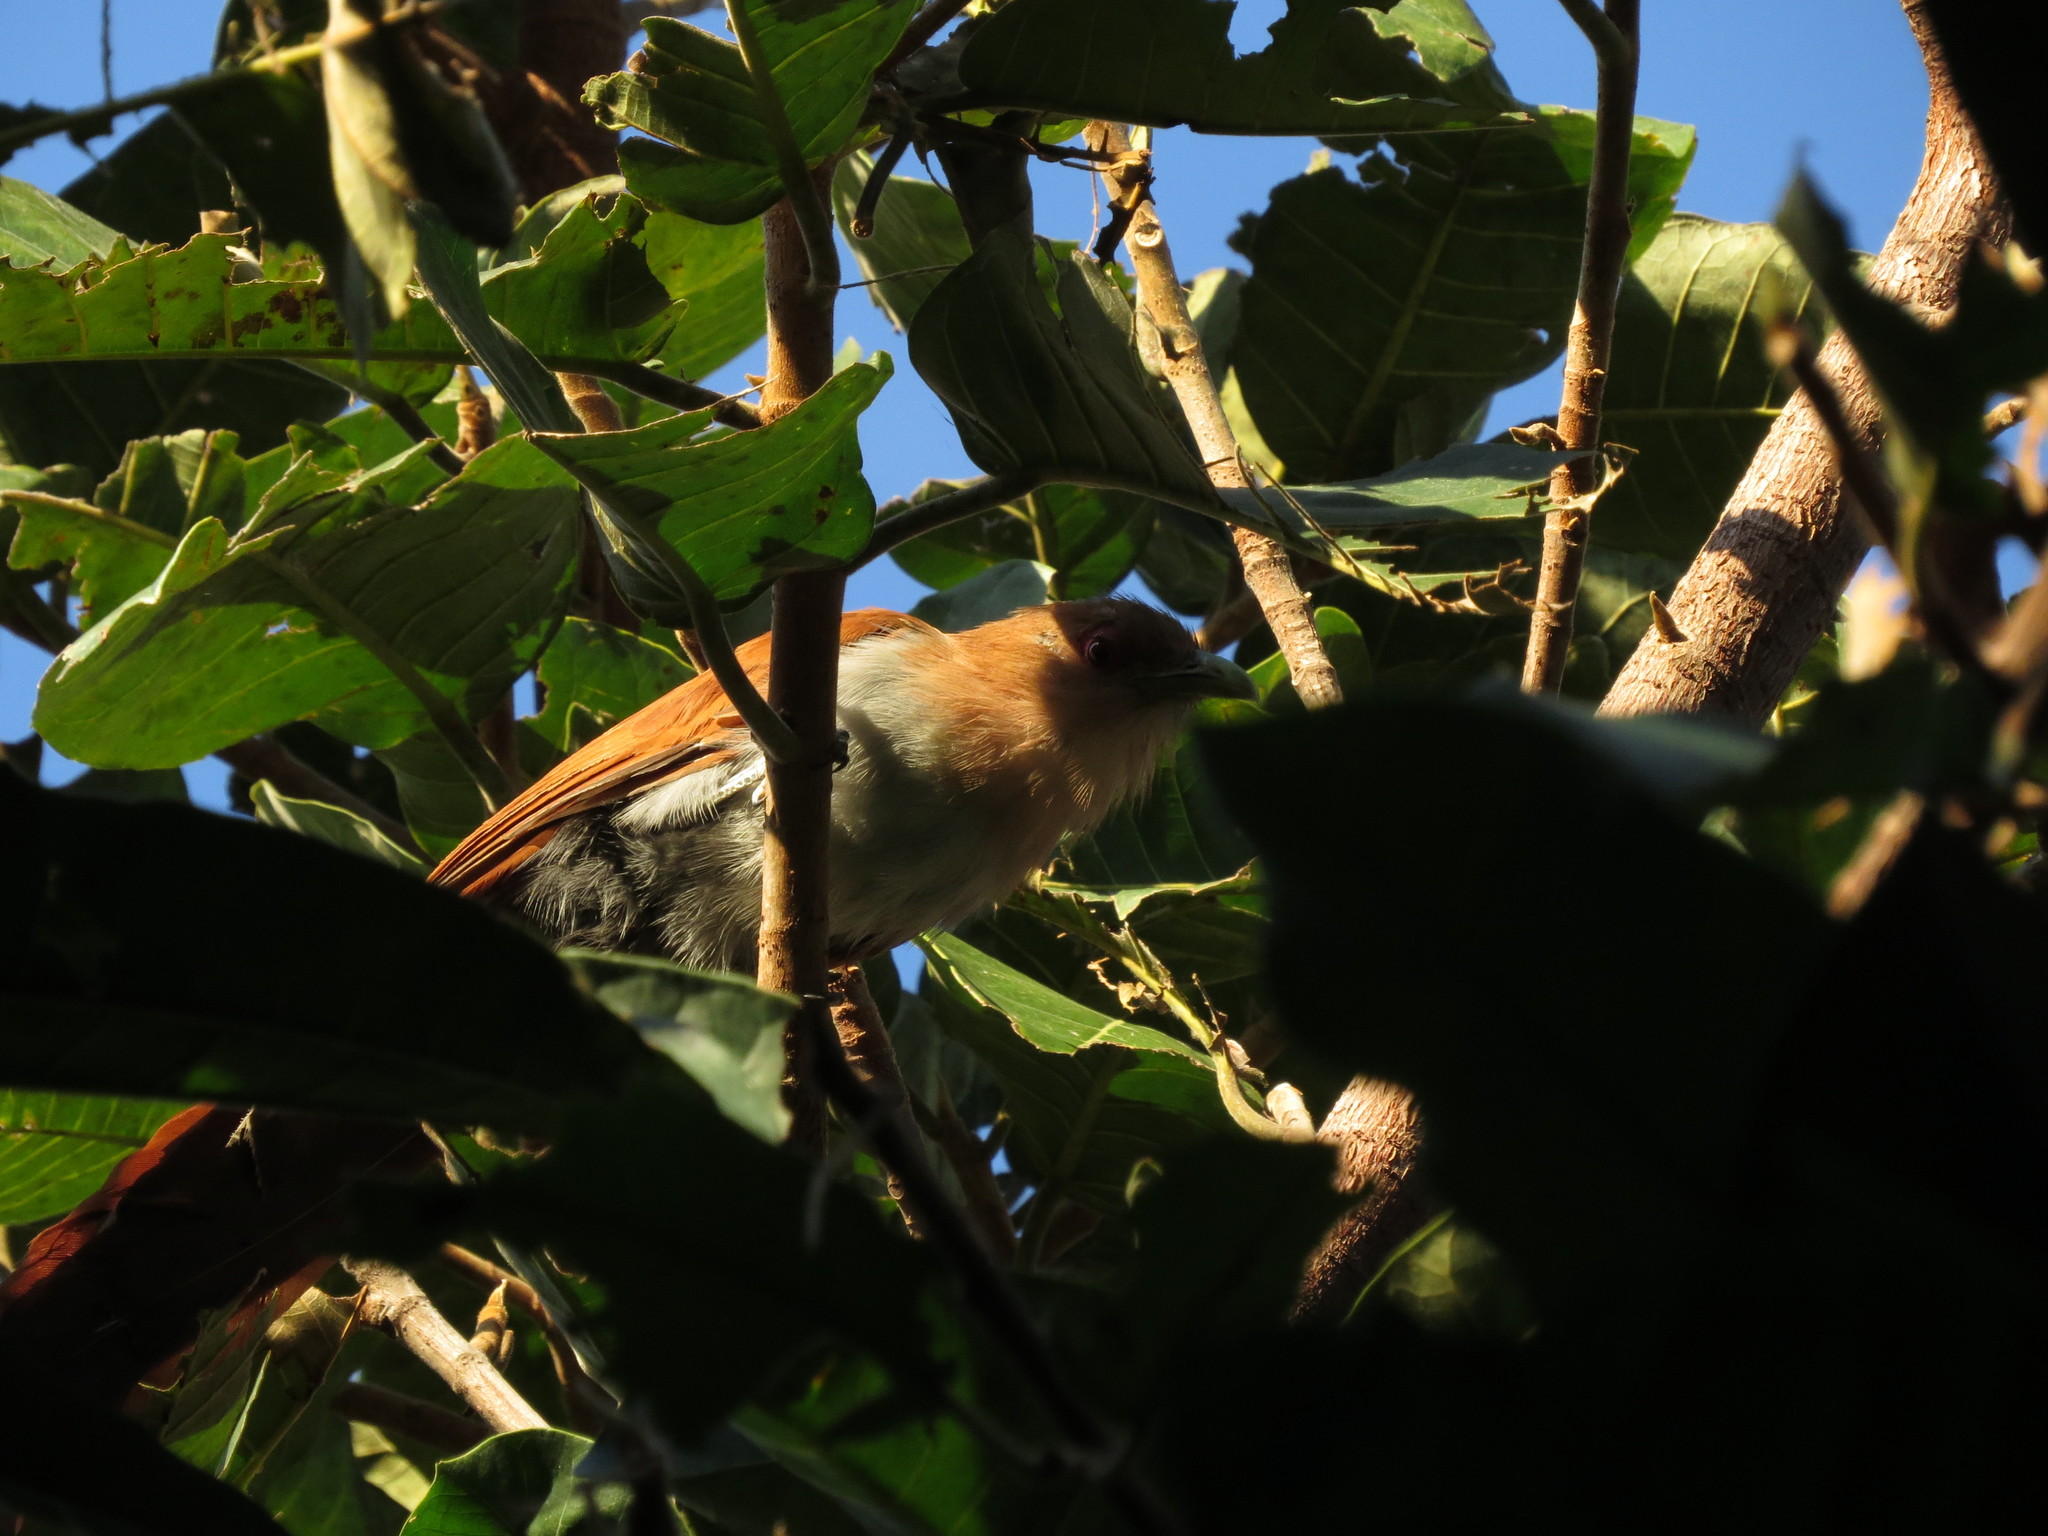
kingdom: Animalia
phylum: Chordata
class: Aves
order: Cuculiformes
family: Cuculidae
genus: Piaya
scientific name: Piaya cayana
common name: Squirrel cuckoo
